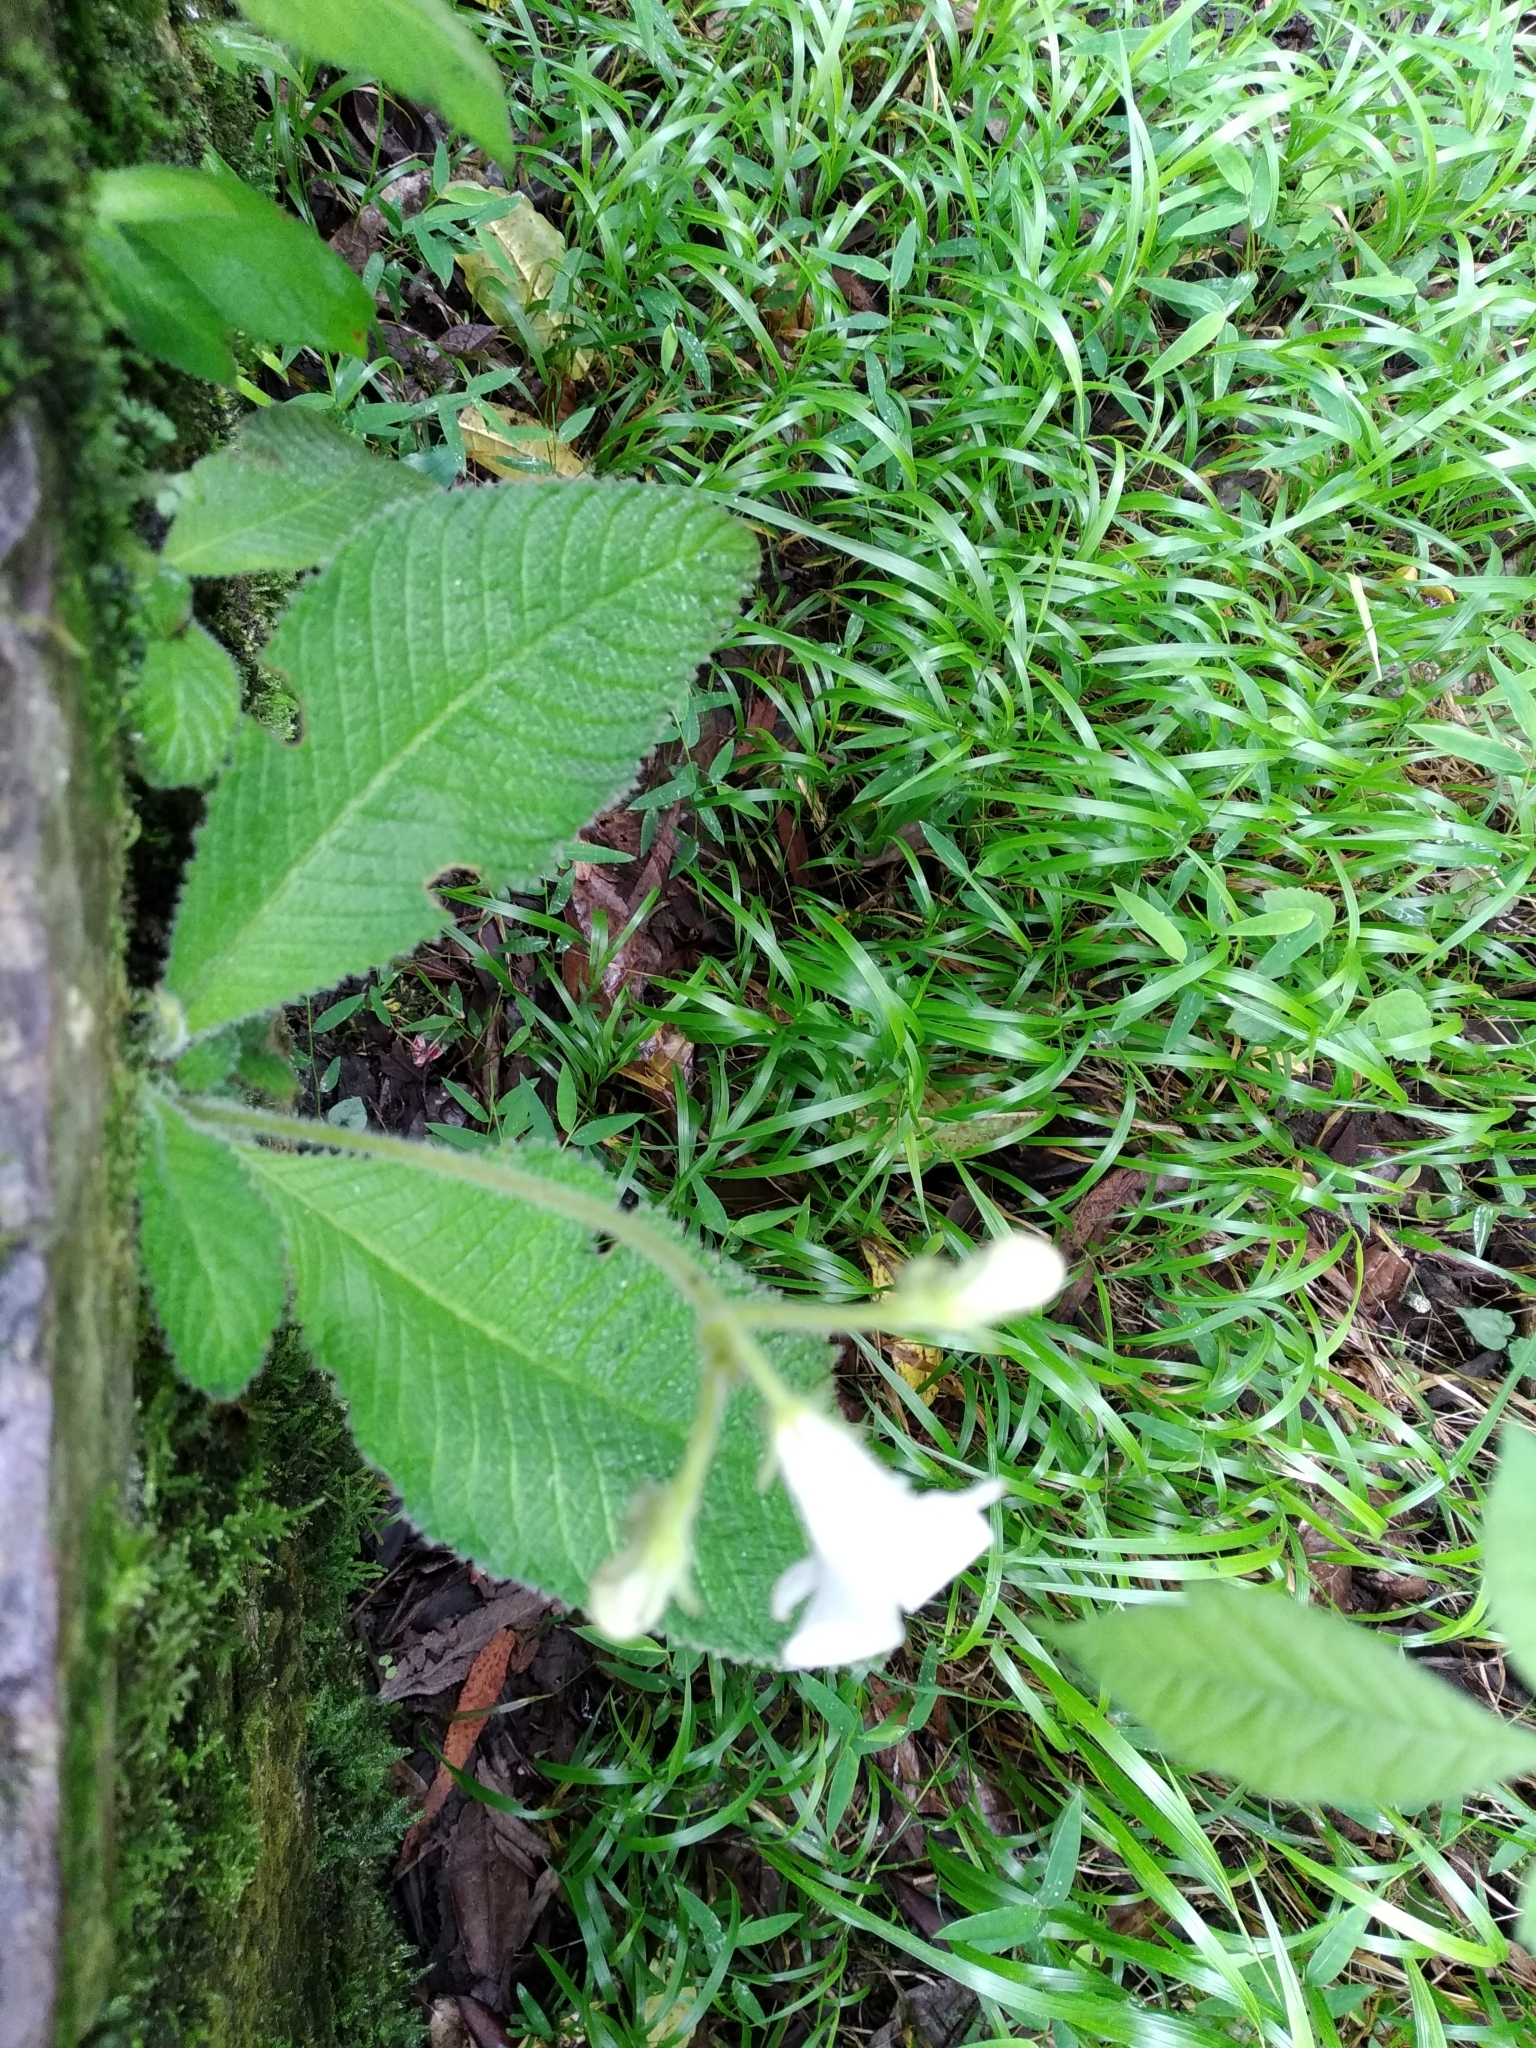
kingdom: Plantae
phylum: Tracheophyta
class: Magnoliopsida
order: Lamiales
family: Gesneriaceae
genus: Streptocarpus
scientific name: Streptocarpus fenestra-dei
